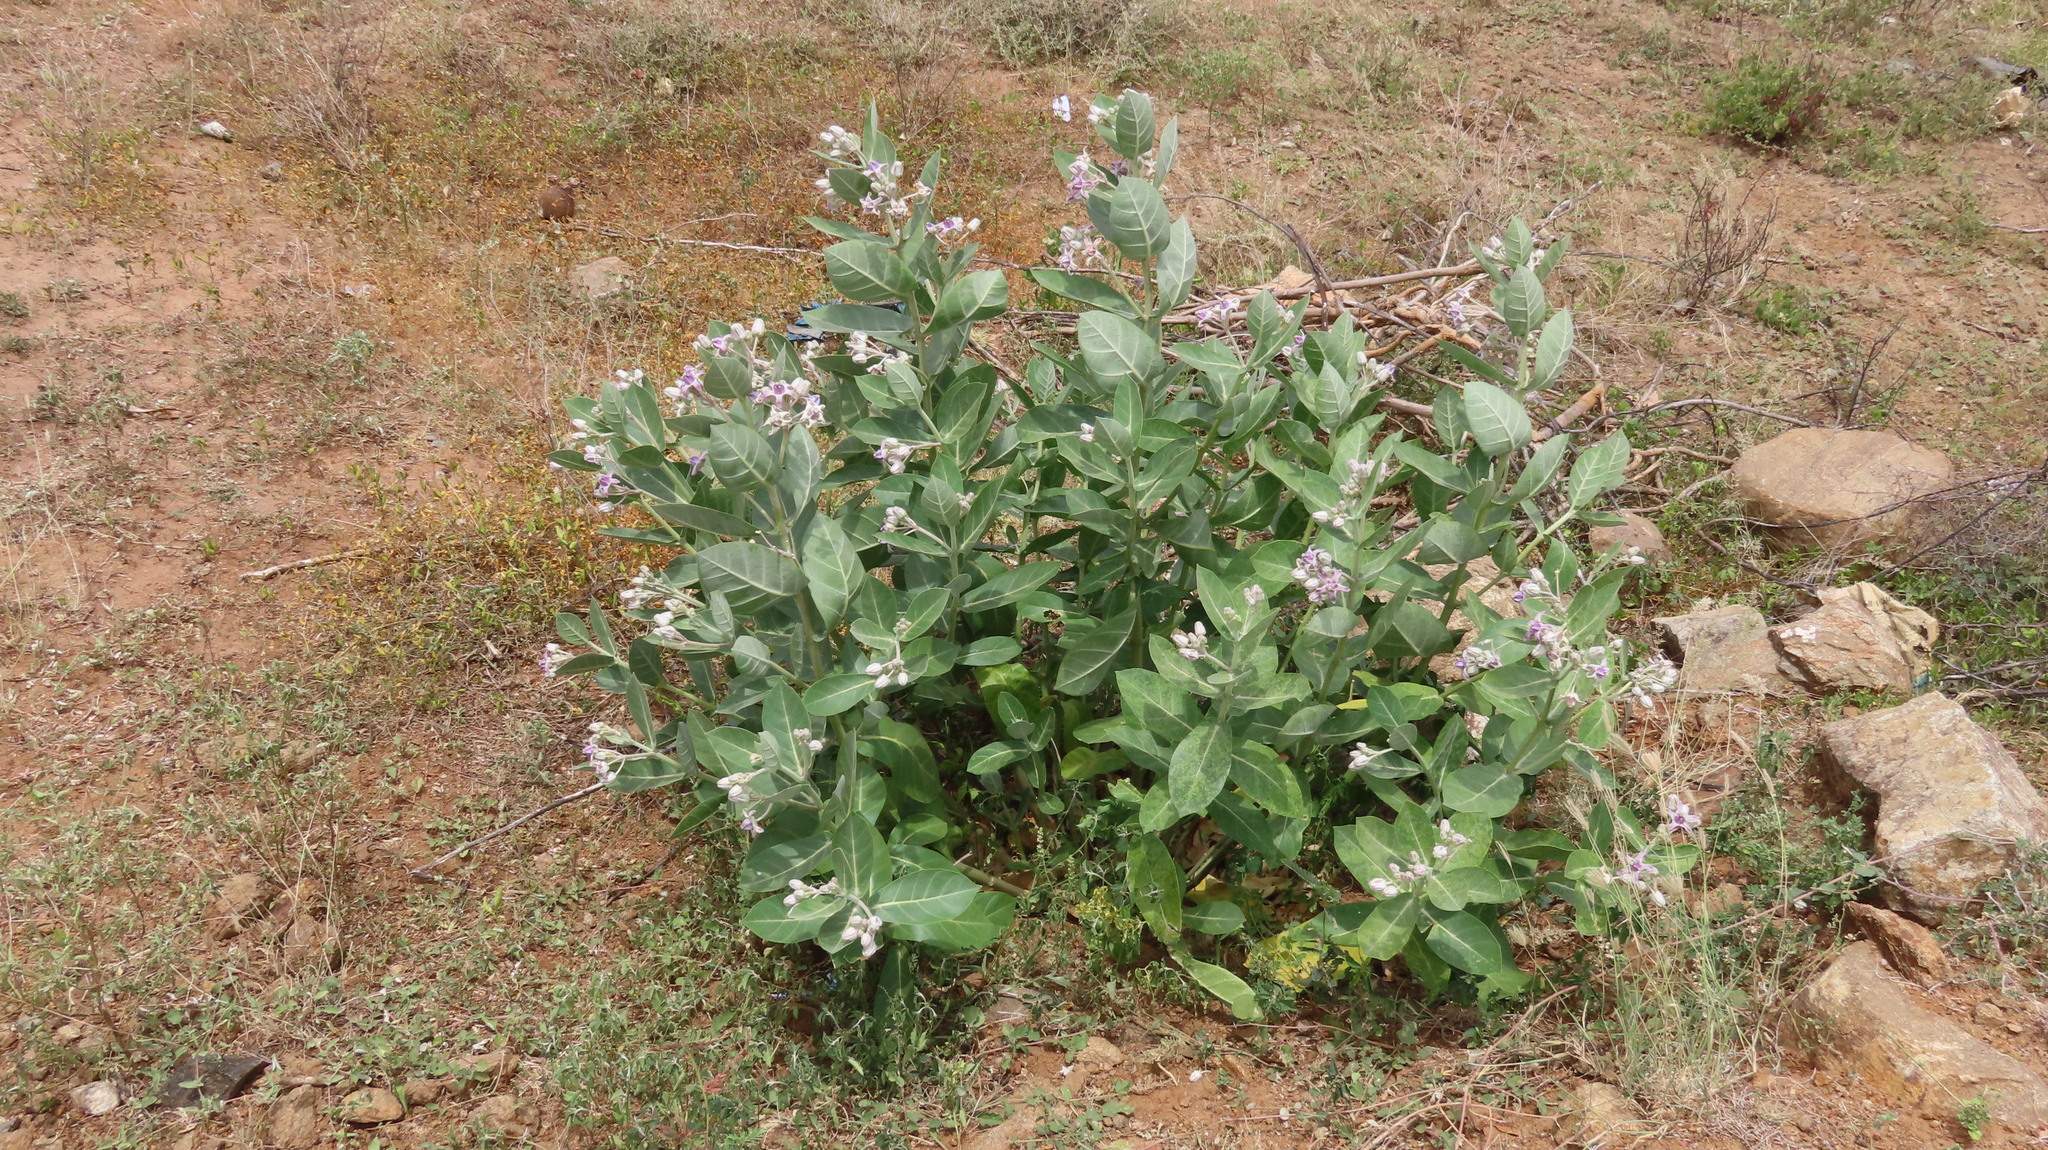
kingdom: Plantae
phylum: Tracheophyta
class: Magnoliopsida
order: Gentianales
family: Apocynaceae
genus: Calotropis
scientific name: Calotropis gigantea
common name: Crown flower
